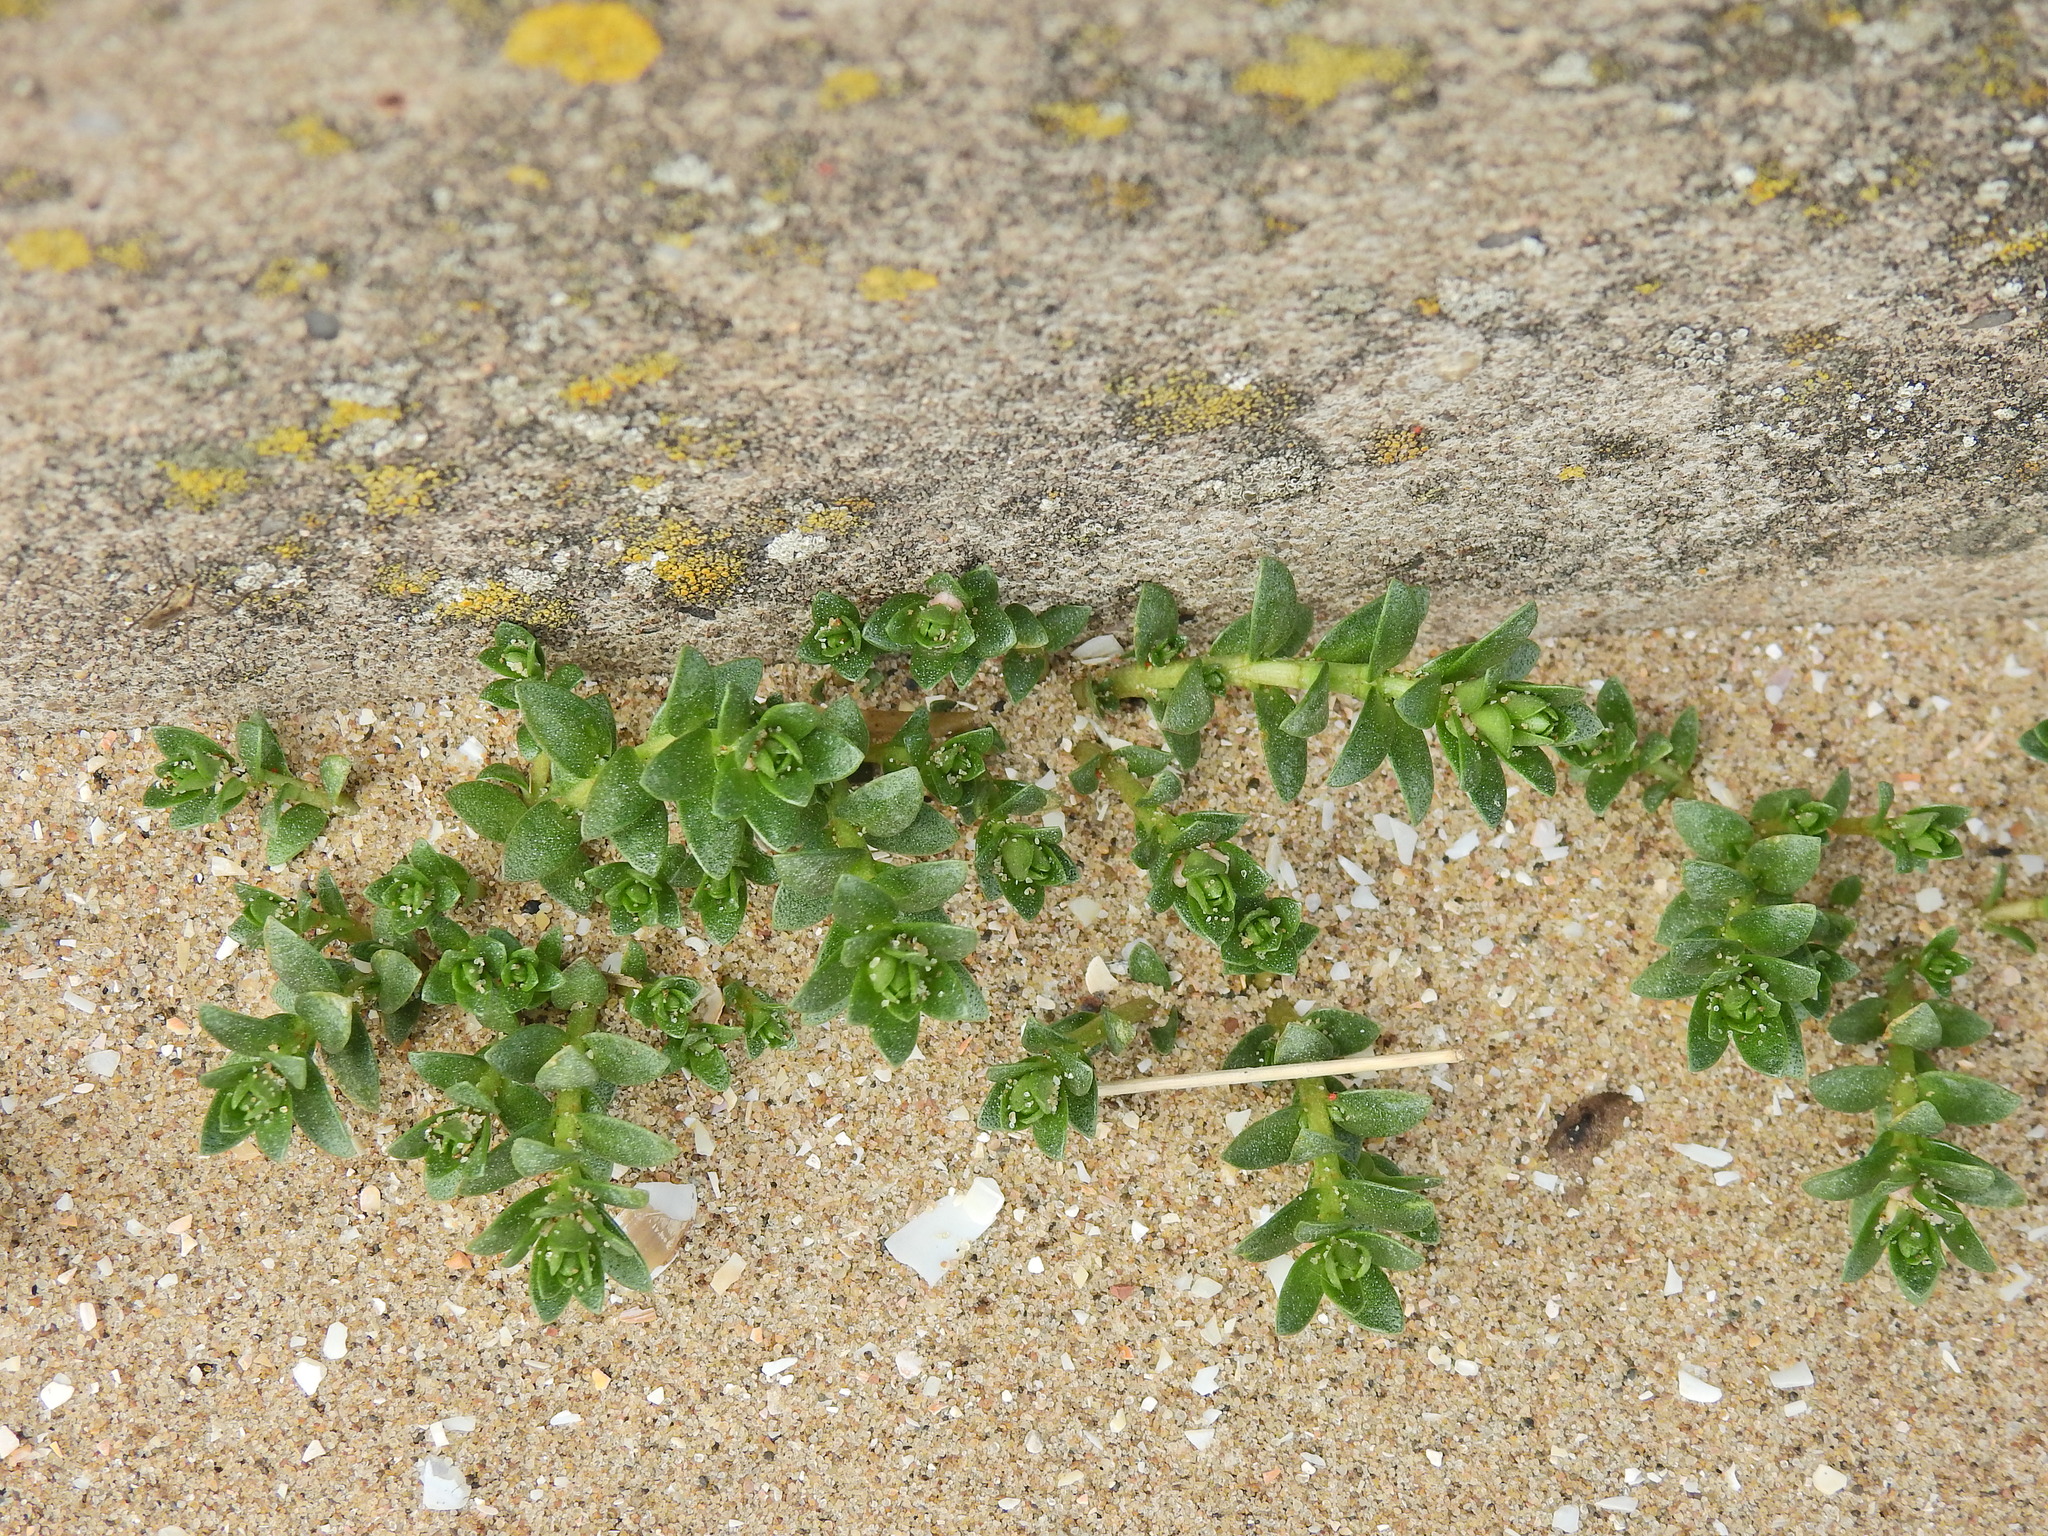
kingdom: Plantae
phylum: Tracheophyta
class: Magnoliopsida
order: Ericales
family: Primulaceae
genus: Lysimachia
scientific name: Lysimachia maritima
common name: Sea milkwort
